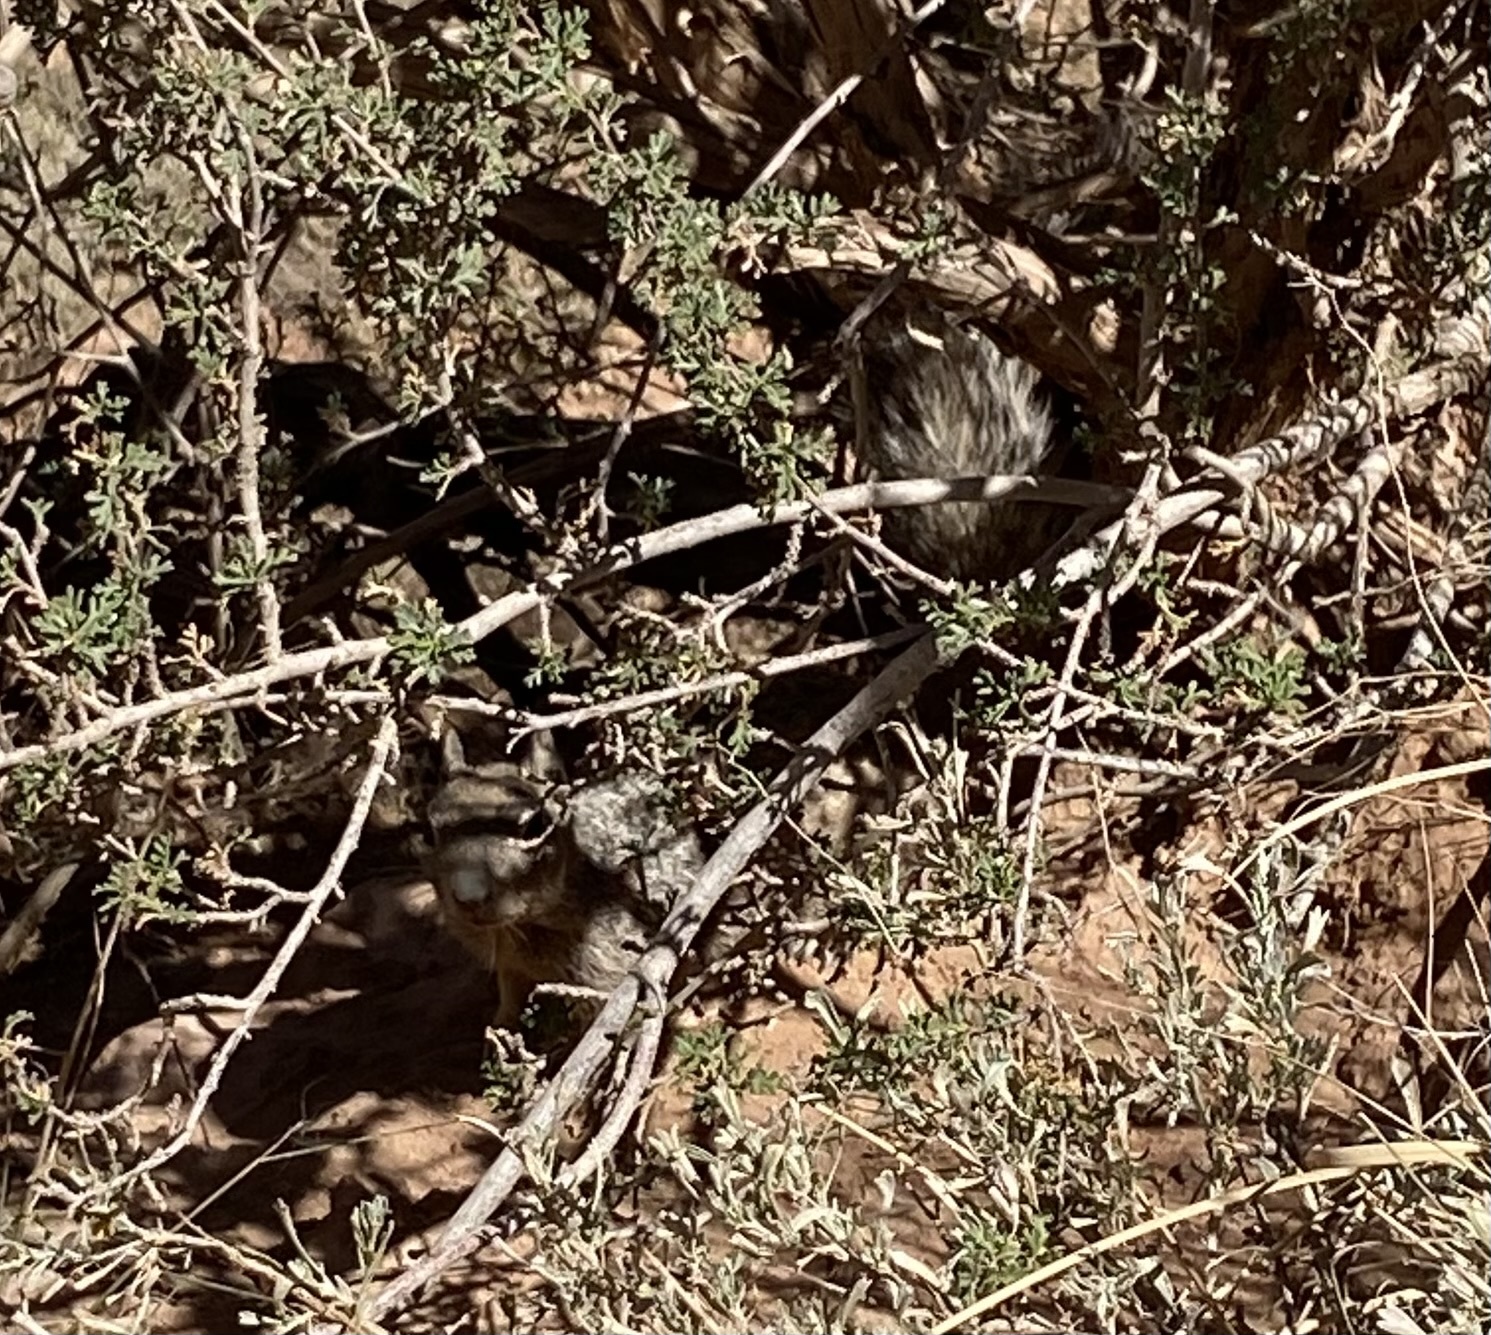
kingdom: Animalia
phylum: Chordata
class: Mammalia
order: Rodentia
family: Sciuridae
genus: Otospermophilus
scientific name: Otospermophilus variegatus
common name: Rock squirrel
